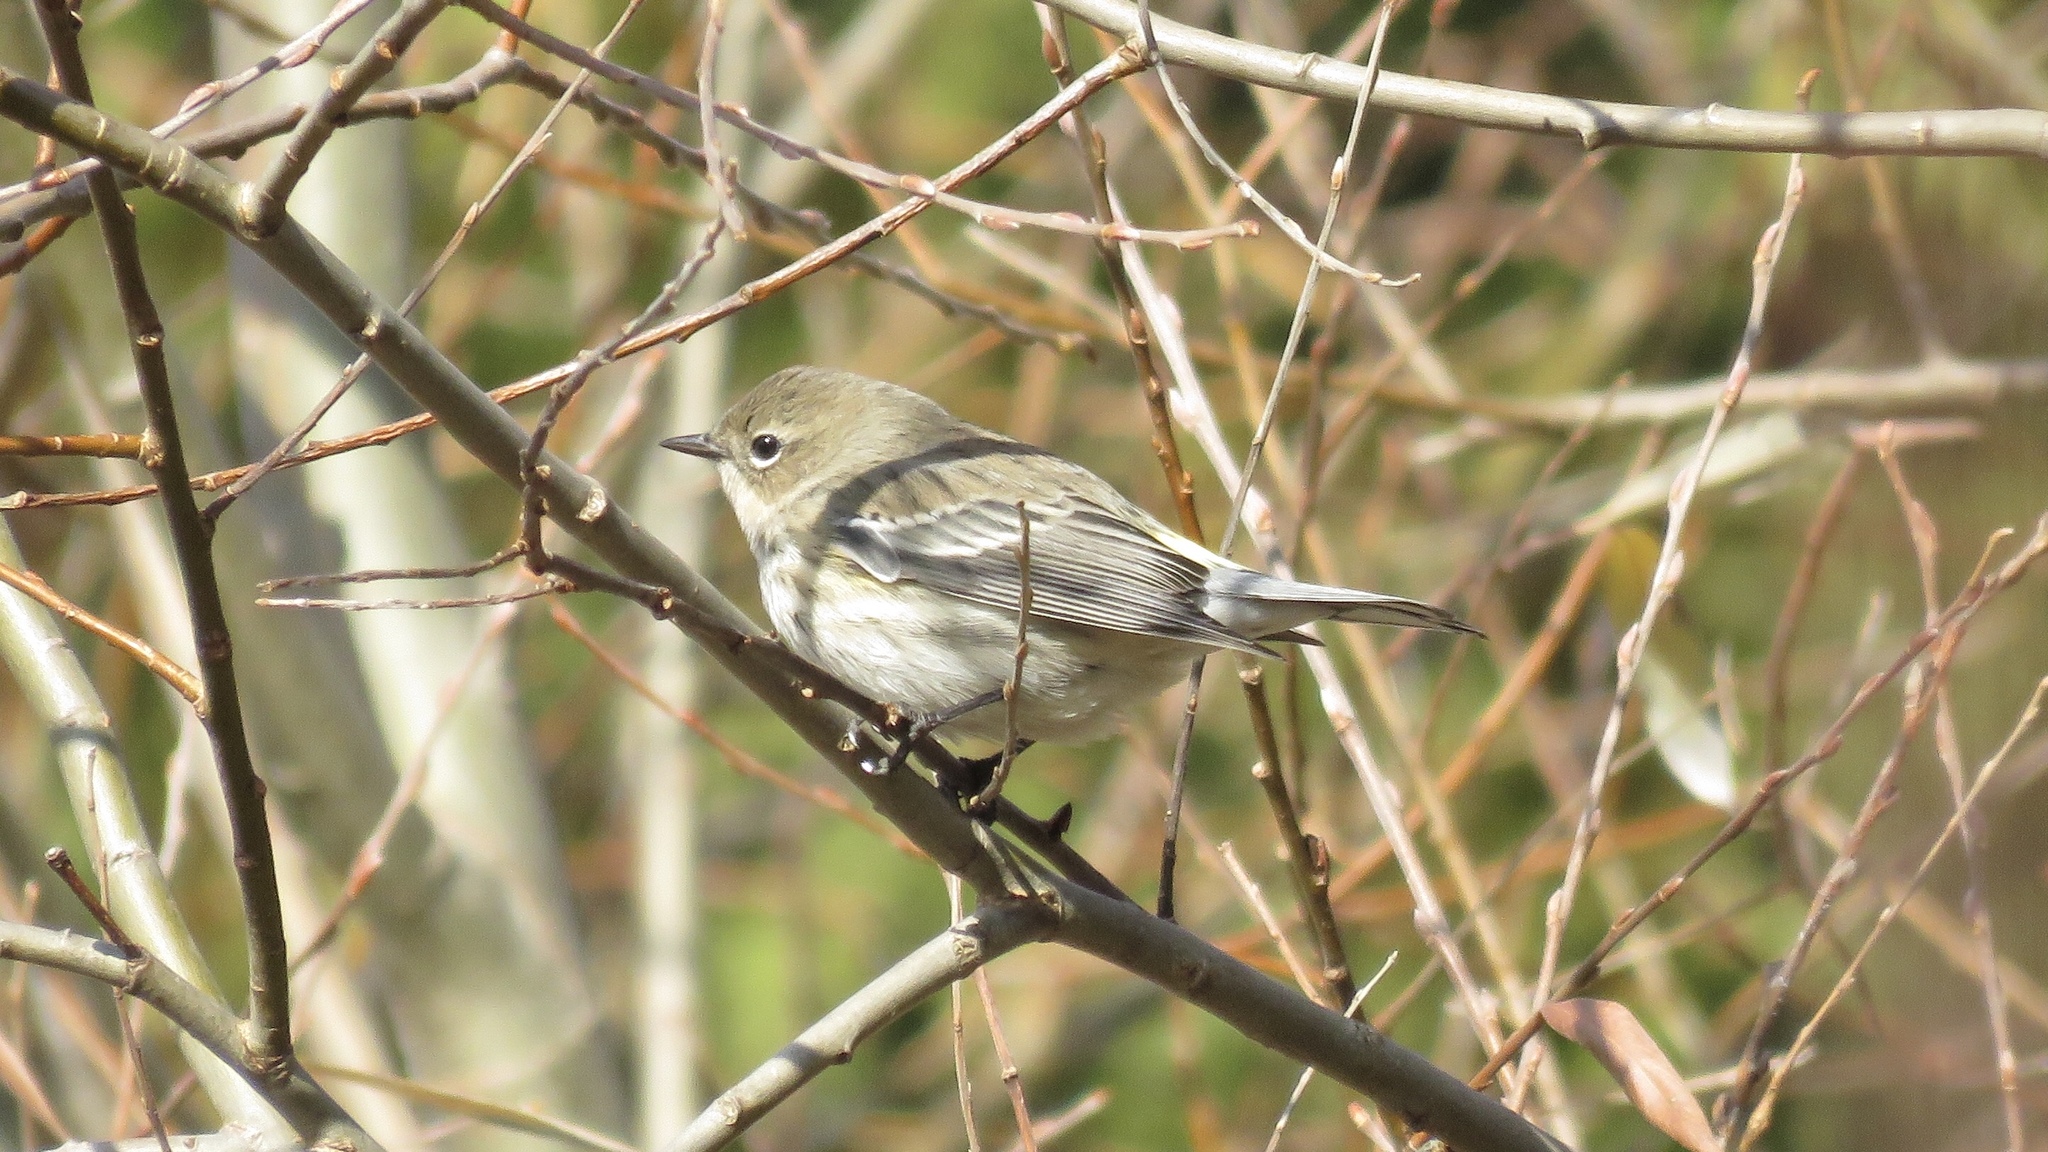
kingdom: Animalia
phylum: Chordata
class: Aves
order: Passeriformes
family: Parulidae
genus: Setophaga
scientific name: Setophaga coronata
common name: Myrtle warbler
